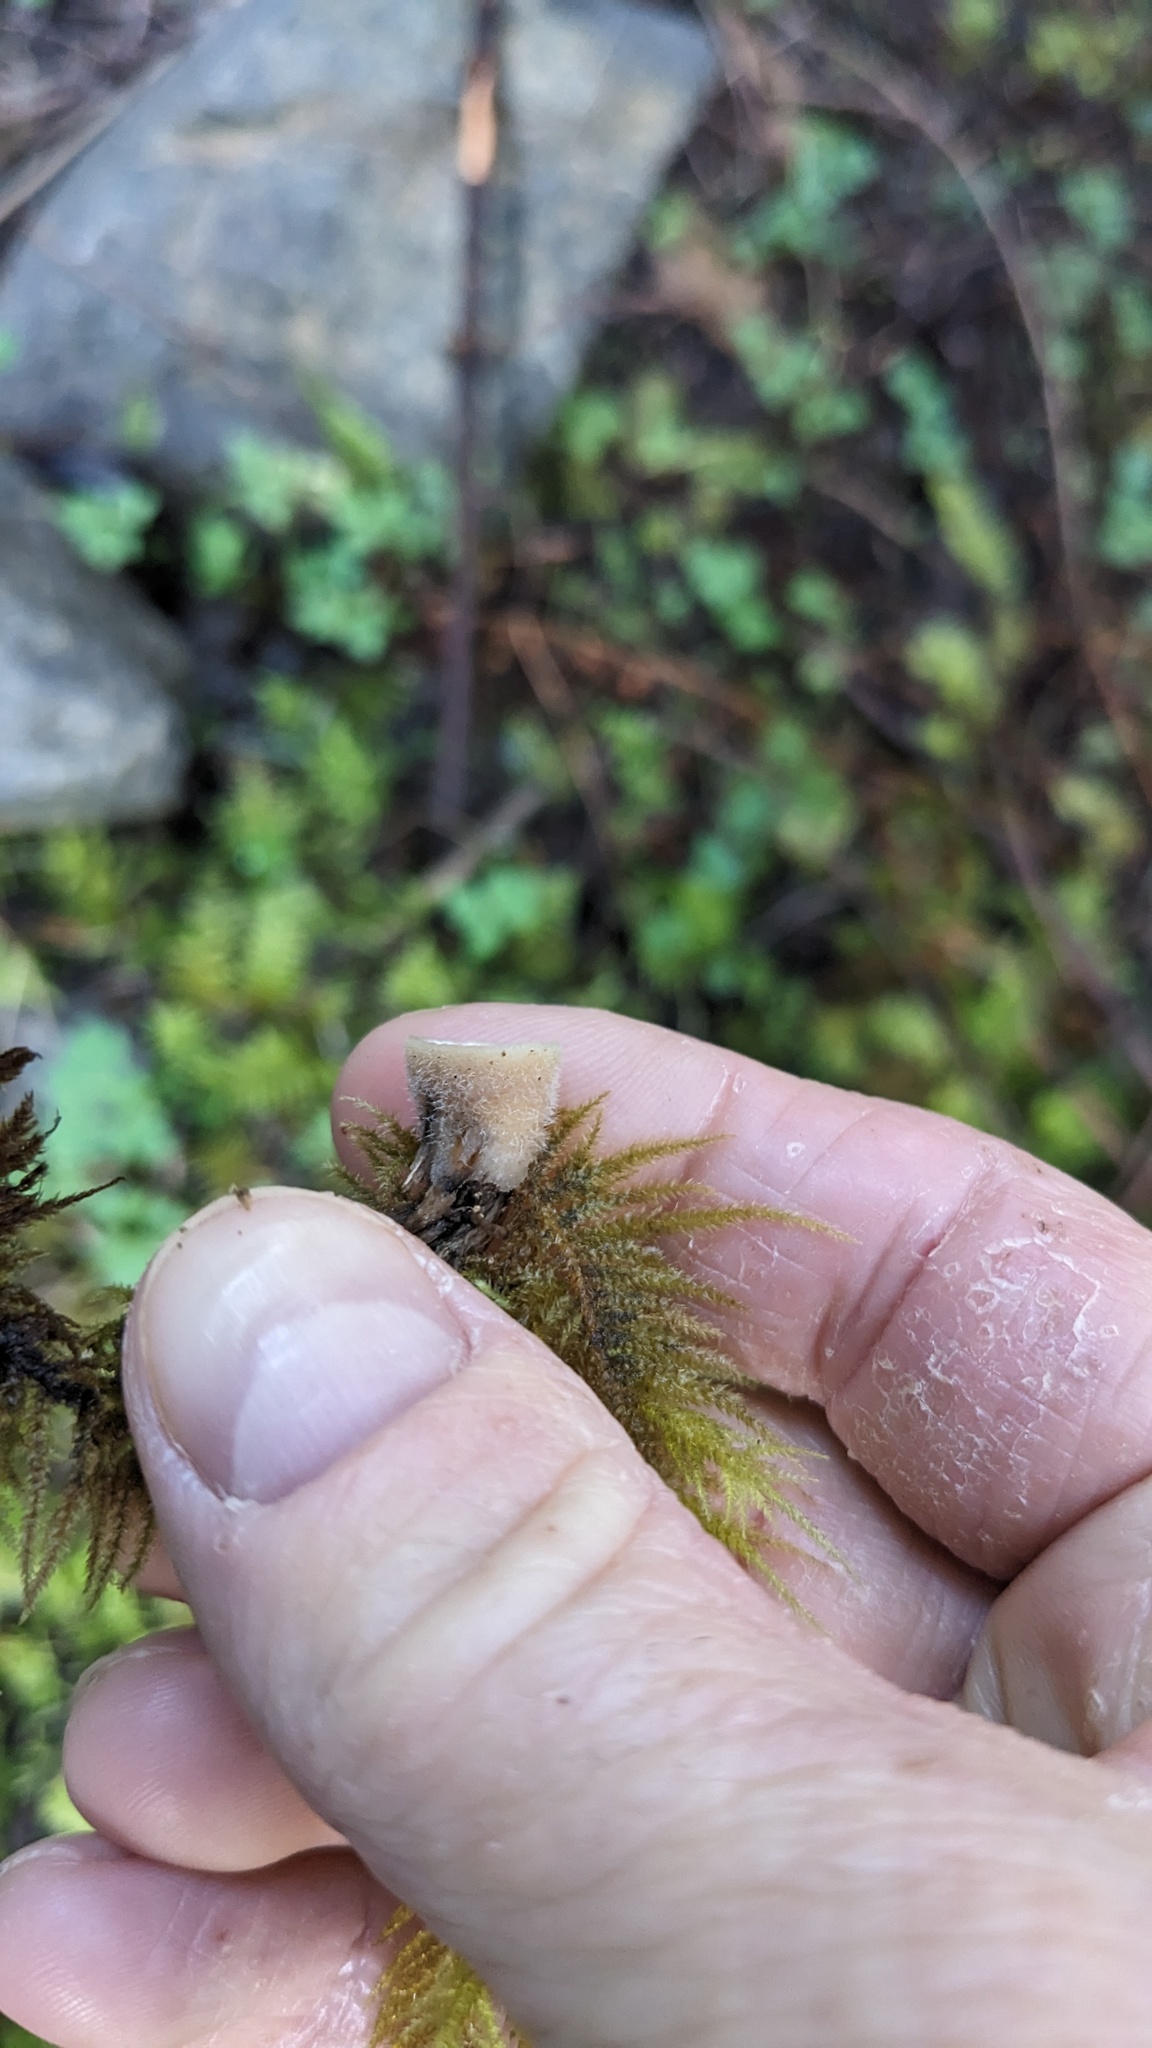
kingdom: Fungi
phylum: Basidiomycota
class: Agaricomycetes
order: Agaricales
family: Agaricaceae
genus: Nidula
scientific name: Nidula niveotomentosa
